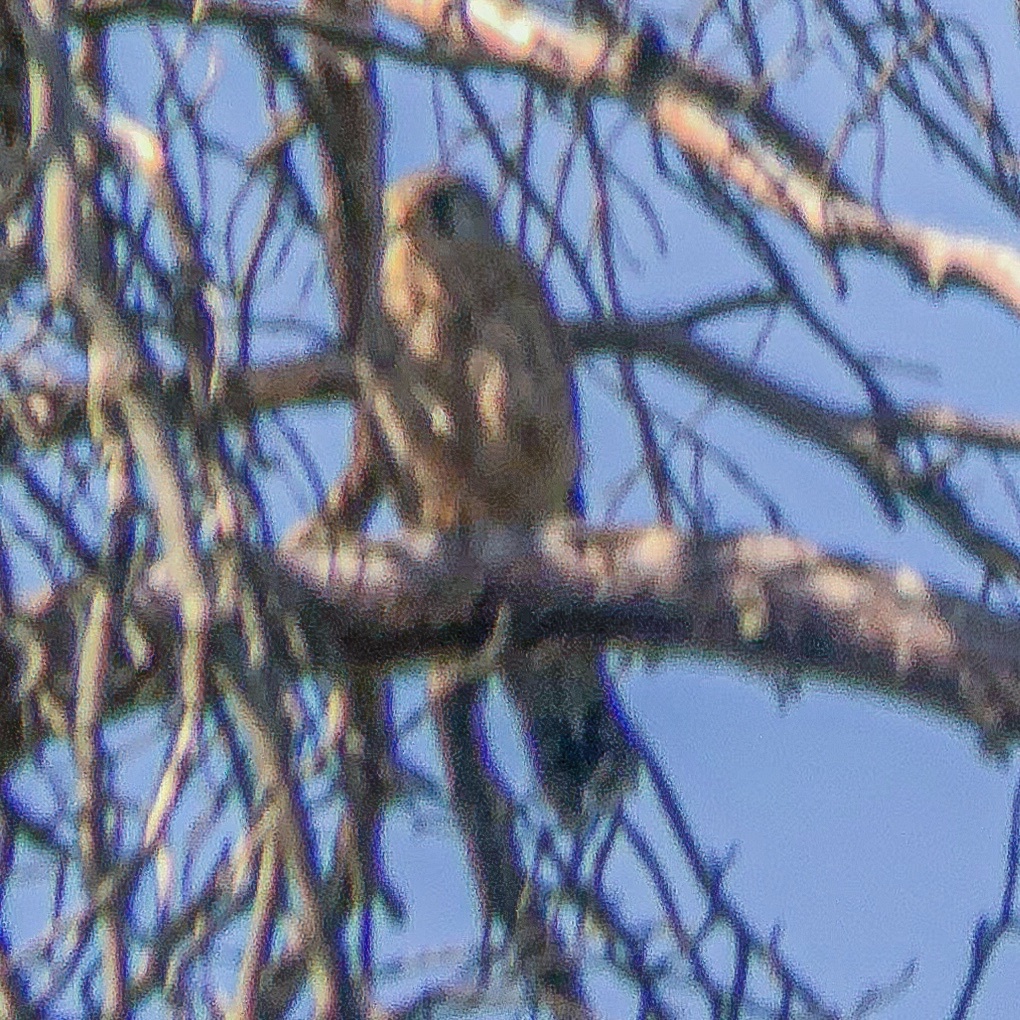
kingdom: Animalia
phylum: Chordata
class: Aves
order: Falconiformes
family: Falconidae
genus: Falco
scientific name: Falco tinnunculus
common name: Common kestrel
